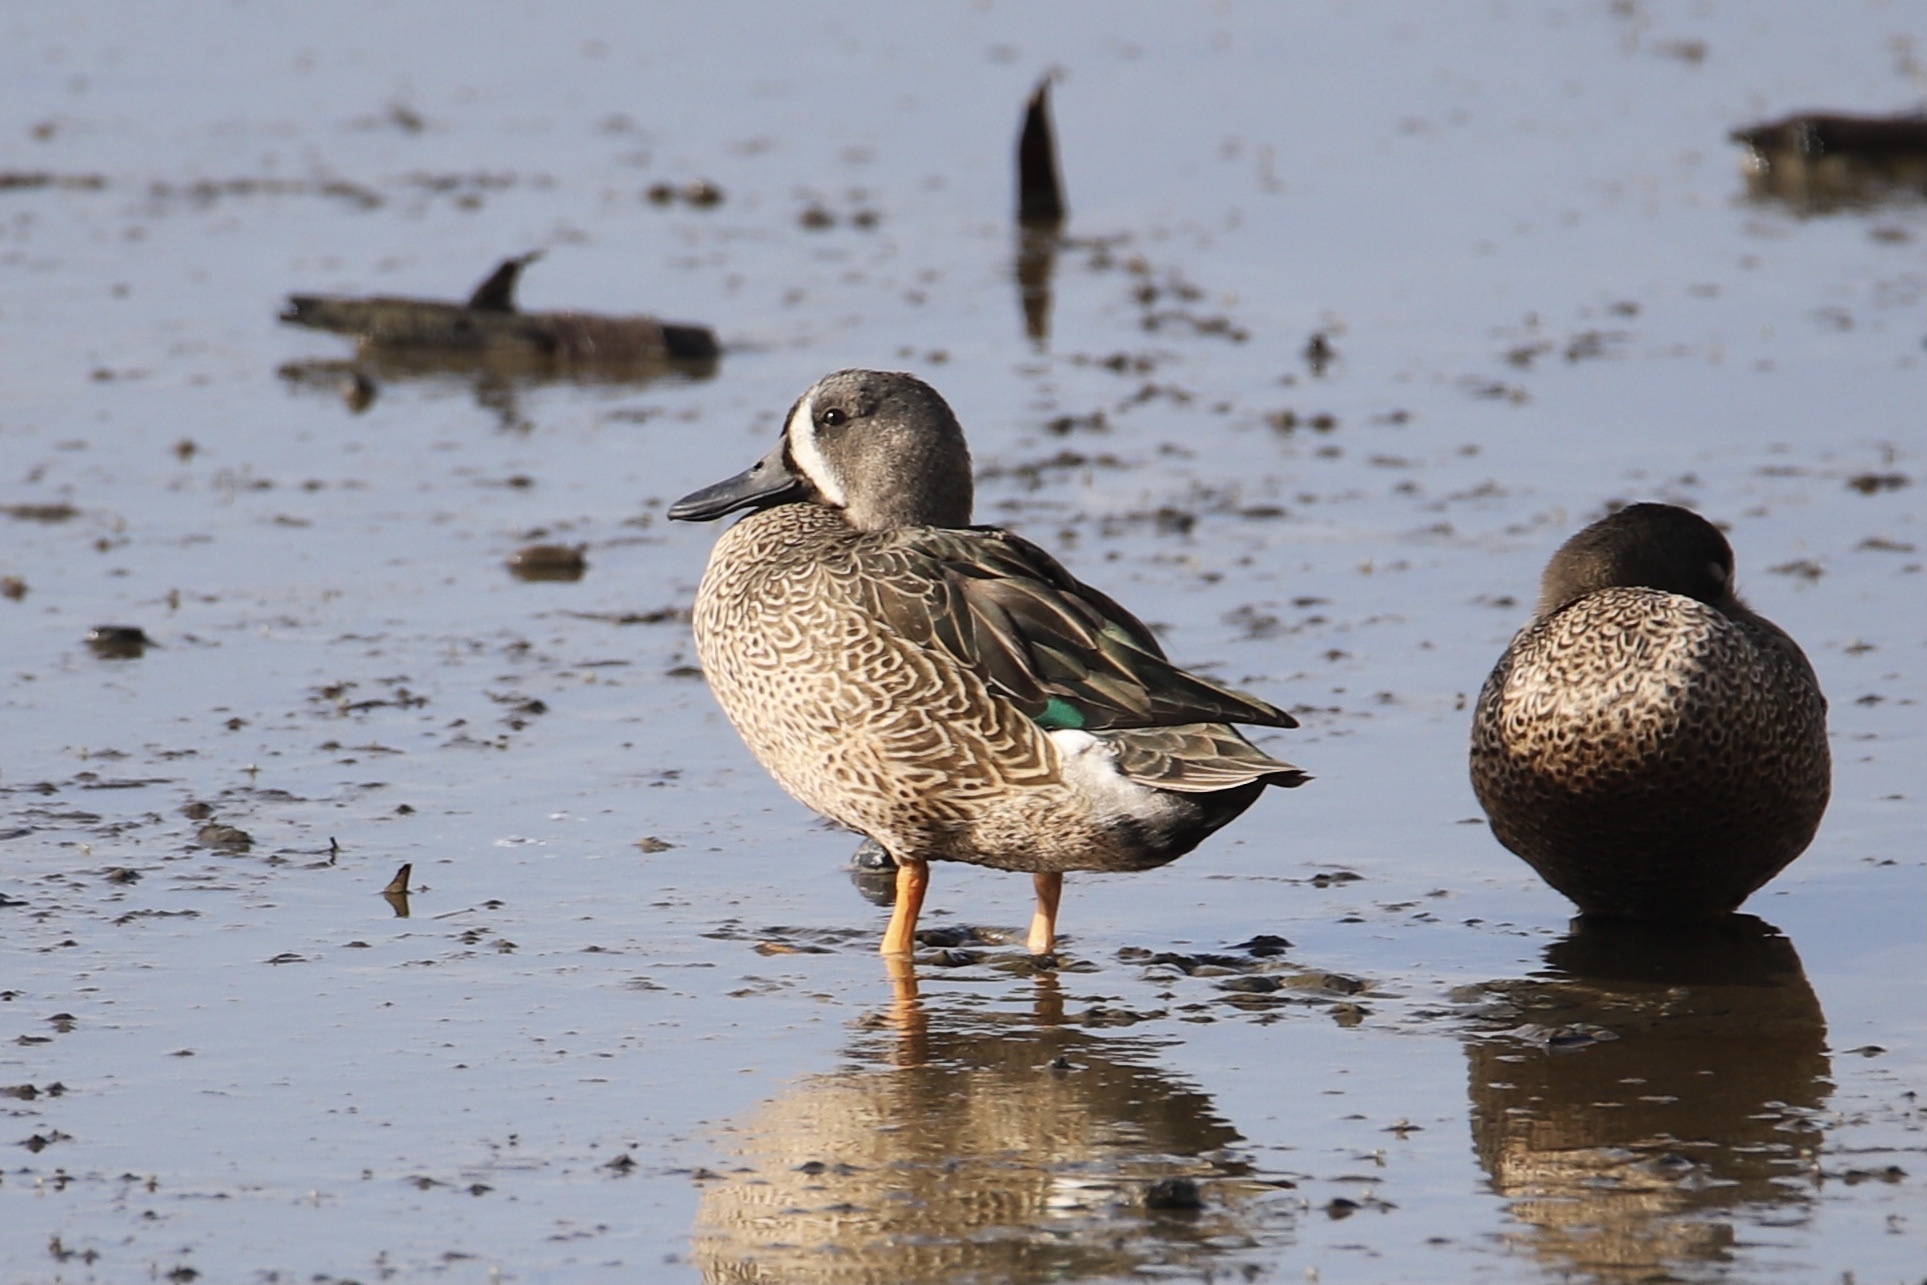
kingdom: Animalia
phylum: Chordata
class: Aves
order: Anseriformes
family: Anatidae
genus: Spatula
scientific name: Spatula discors
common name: Blue-winged teal
